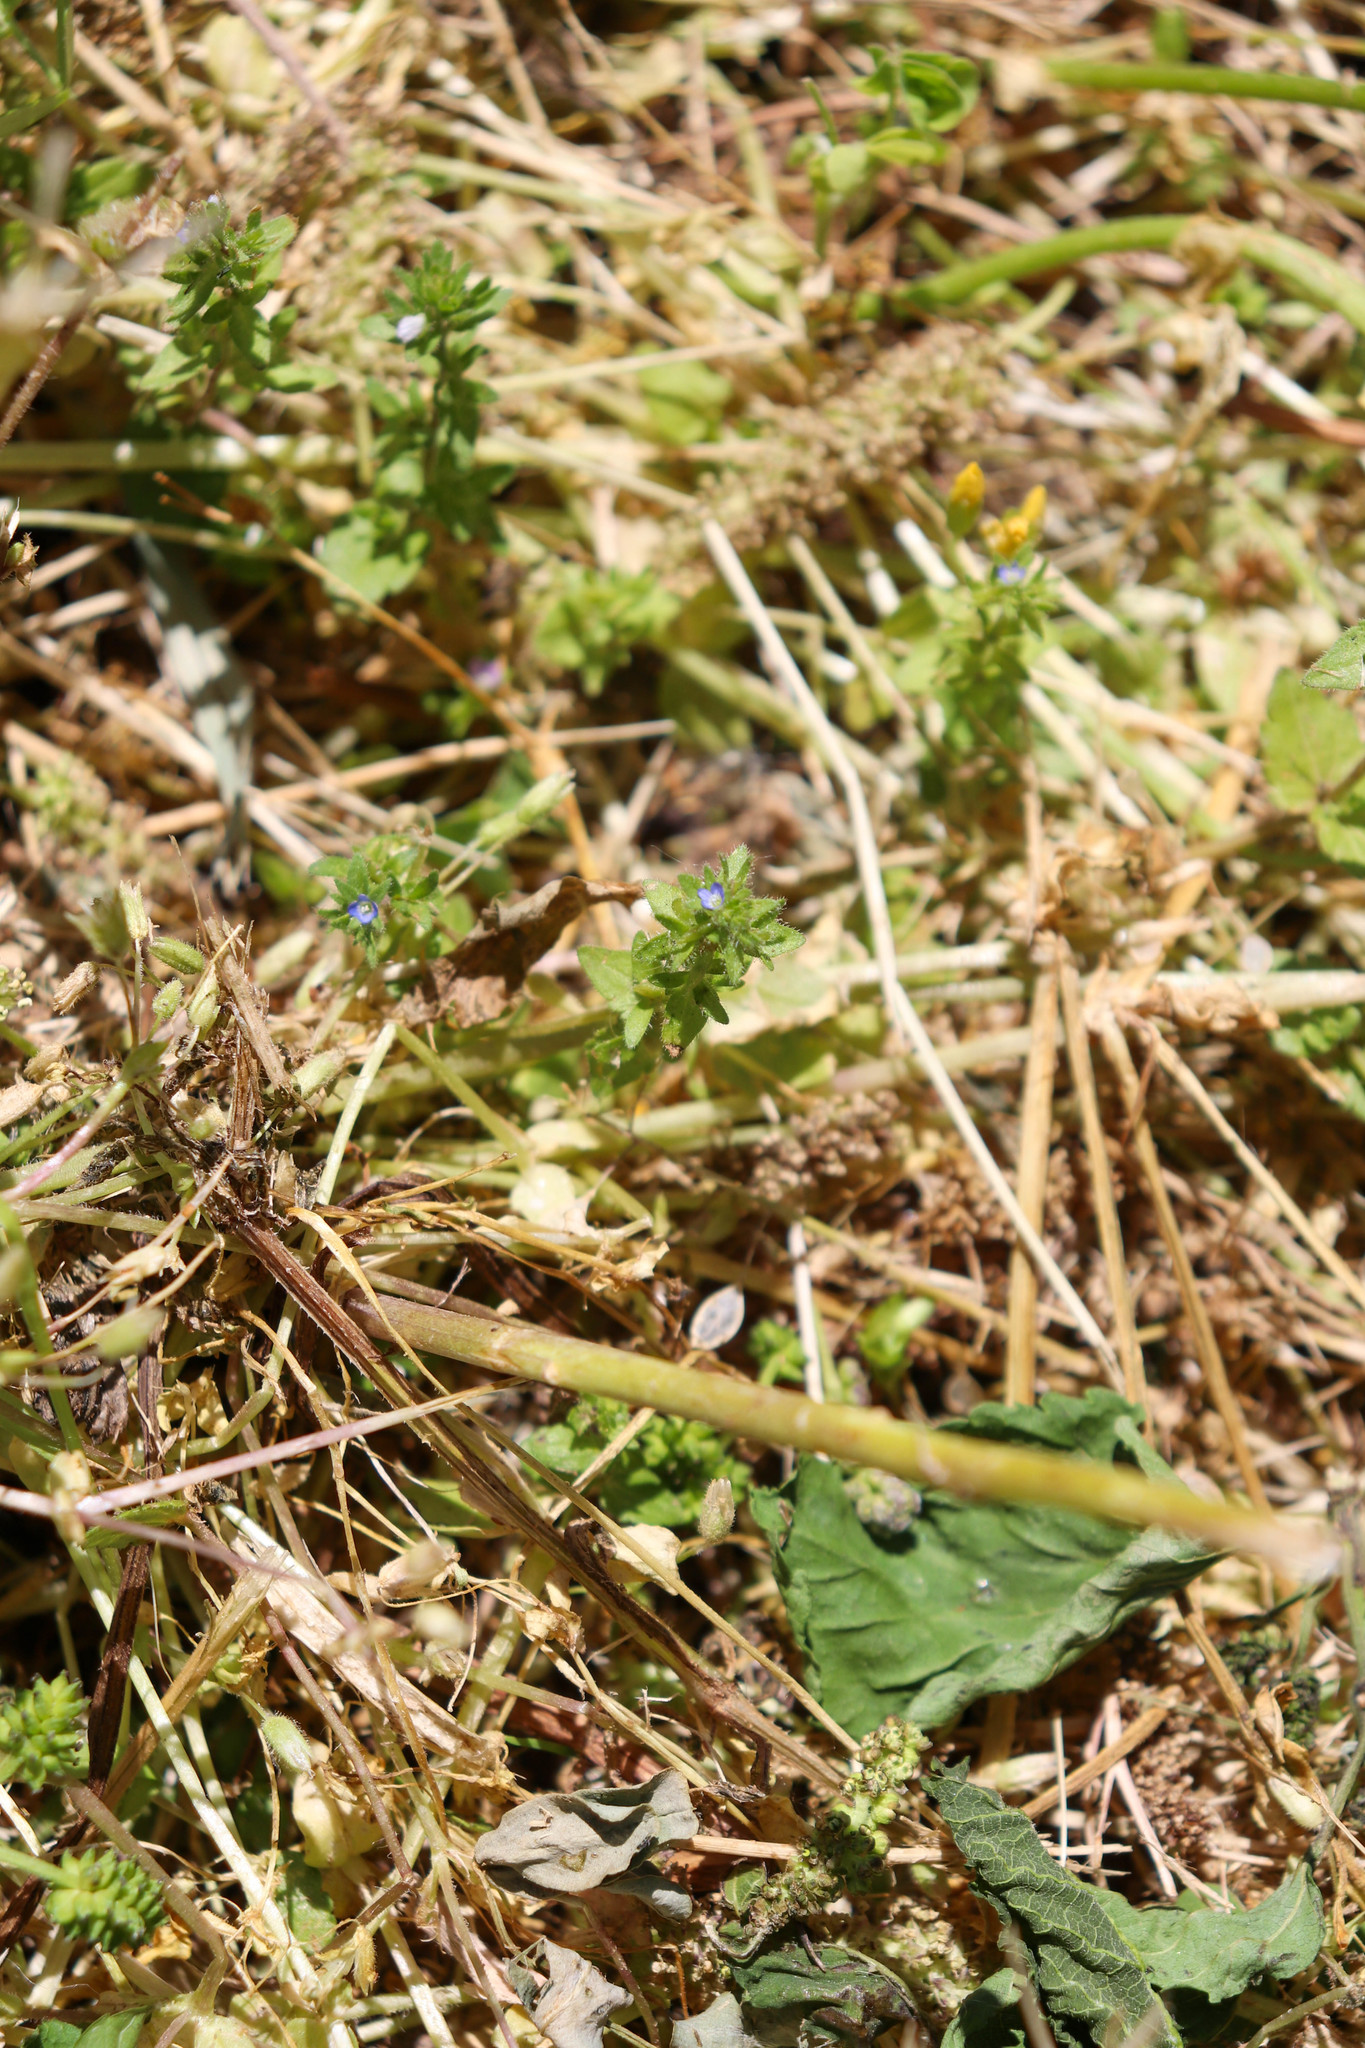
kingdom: Plantae
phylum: Tracheophyta
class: Magnoliopsida
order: Lamiales
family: Plantaginaceae
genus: Veronica
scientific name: Veronica arvensis
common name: Corn speedwell
